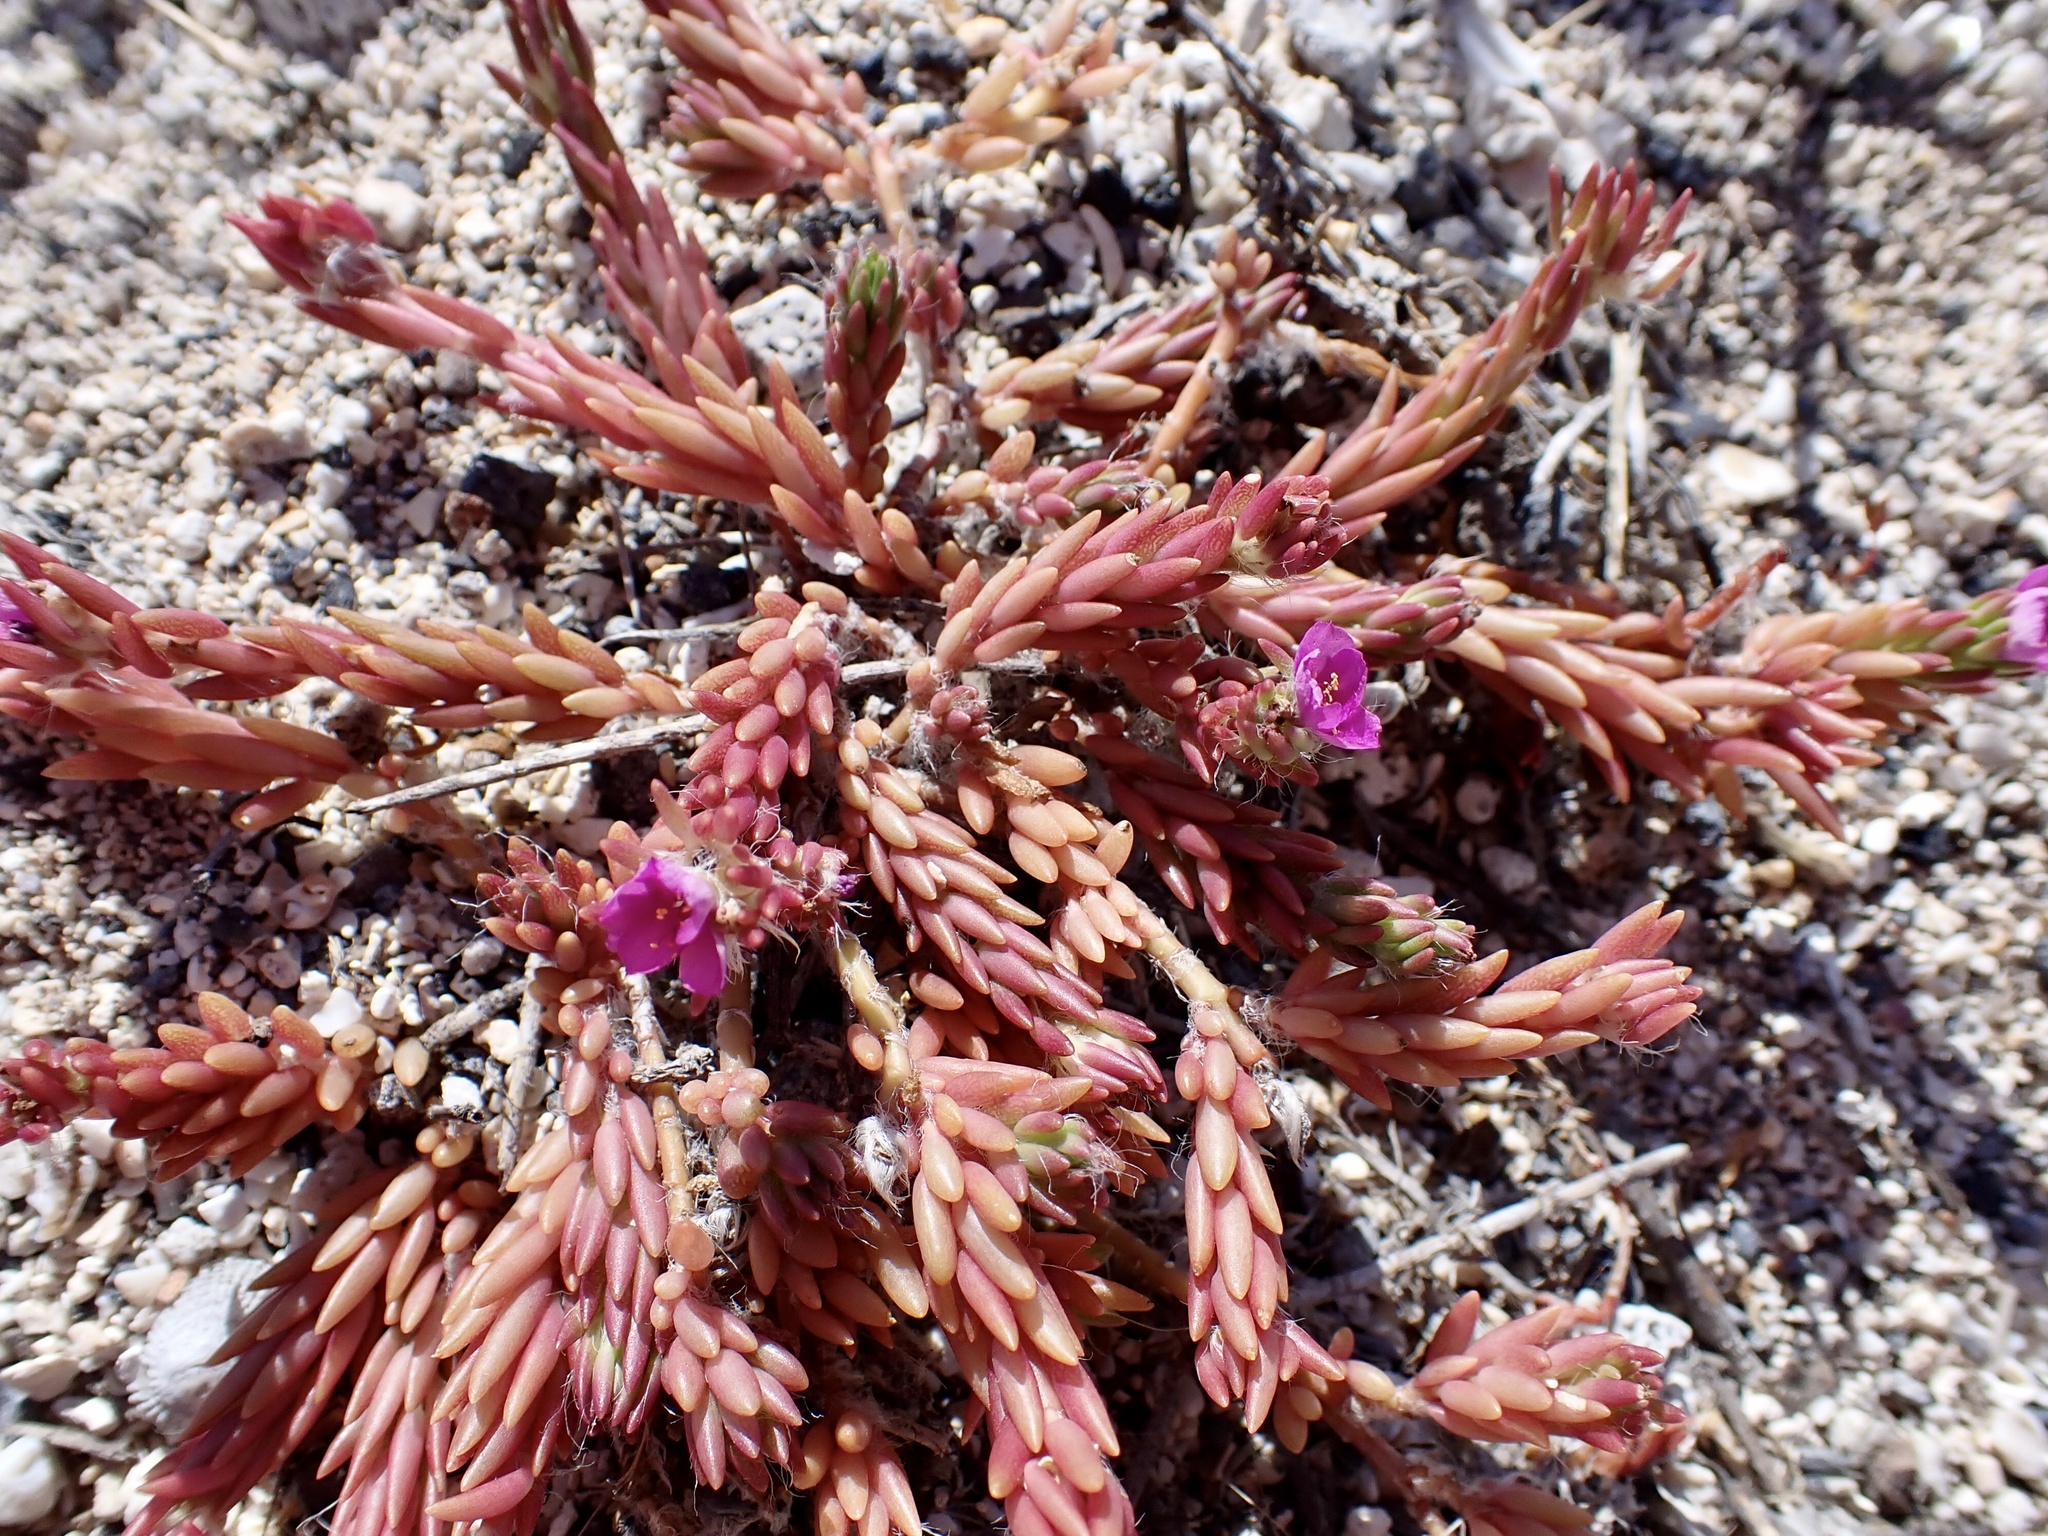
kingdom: Plantae
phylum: Tracheophyta
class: Magnoliopsida
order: Caryophyllales
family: Portulacaceae
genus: Portulaca
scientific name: Portulaca pilosa
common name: Kiss me quick
